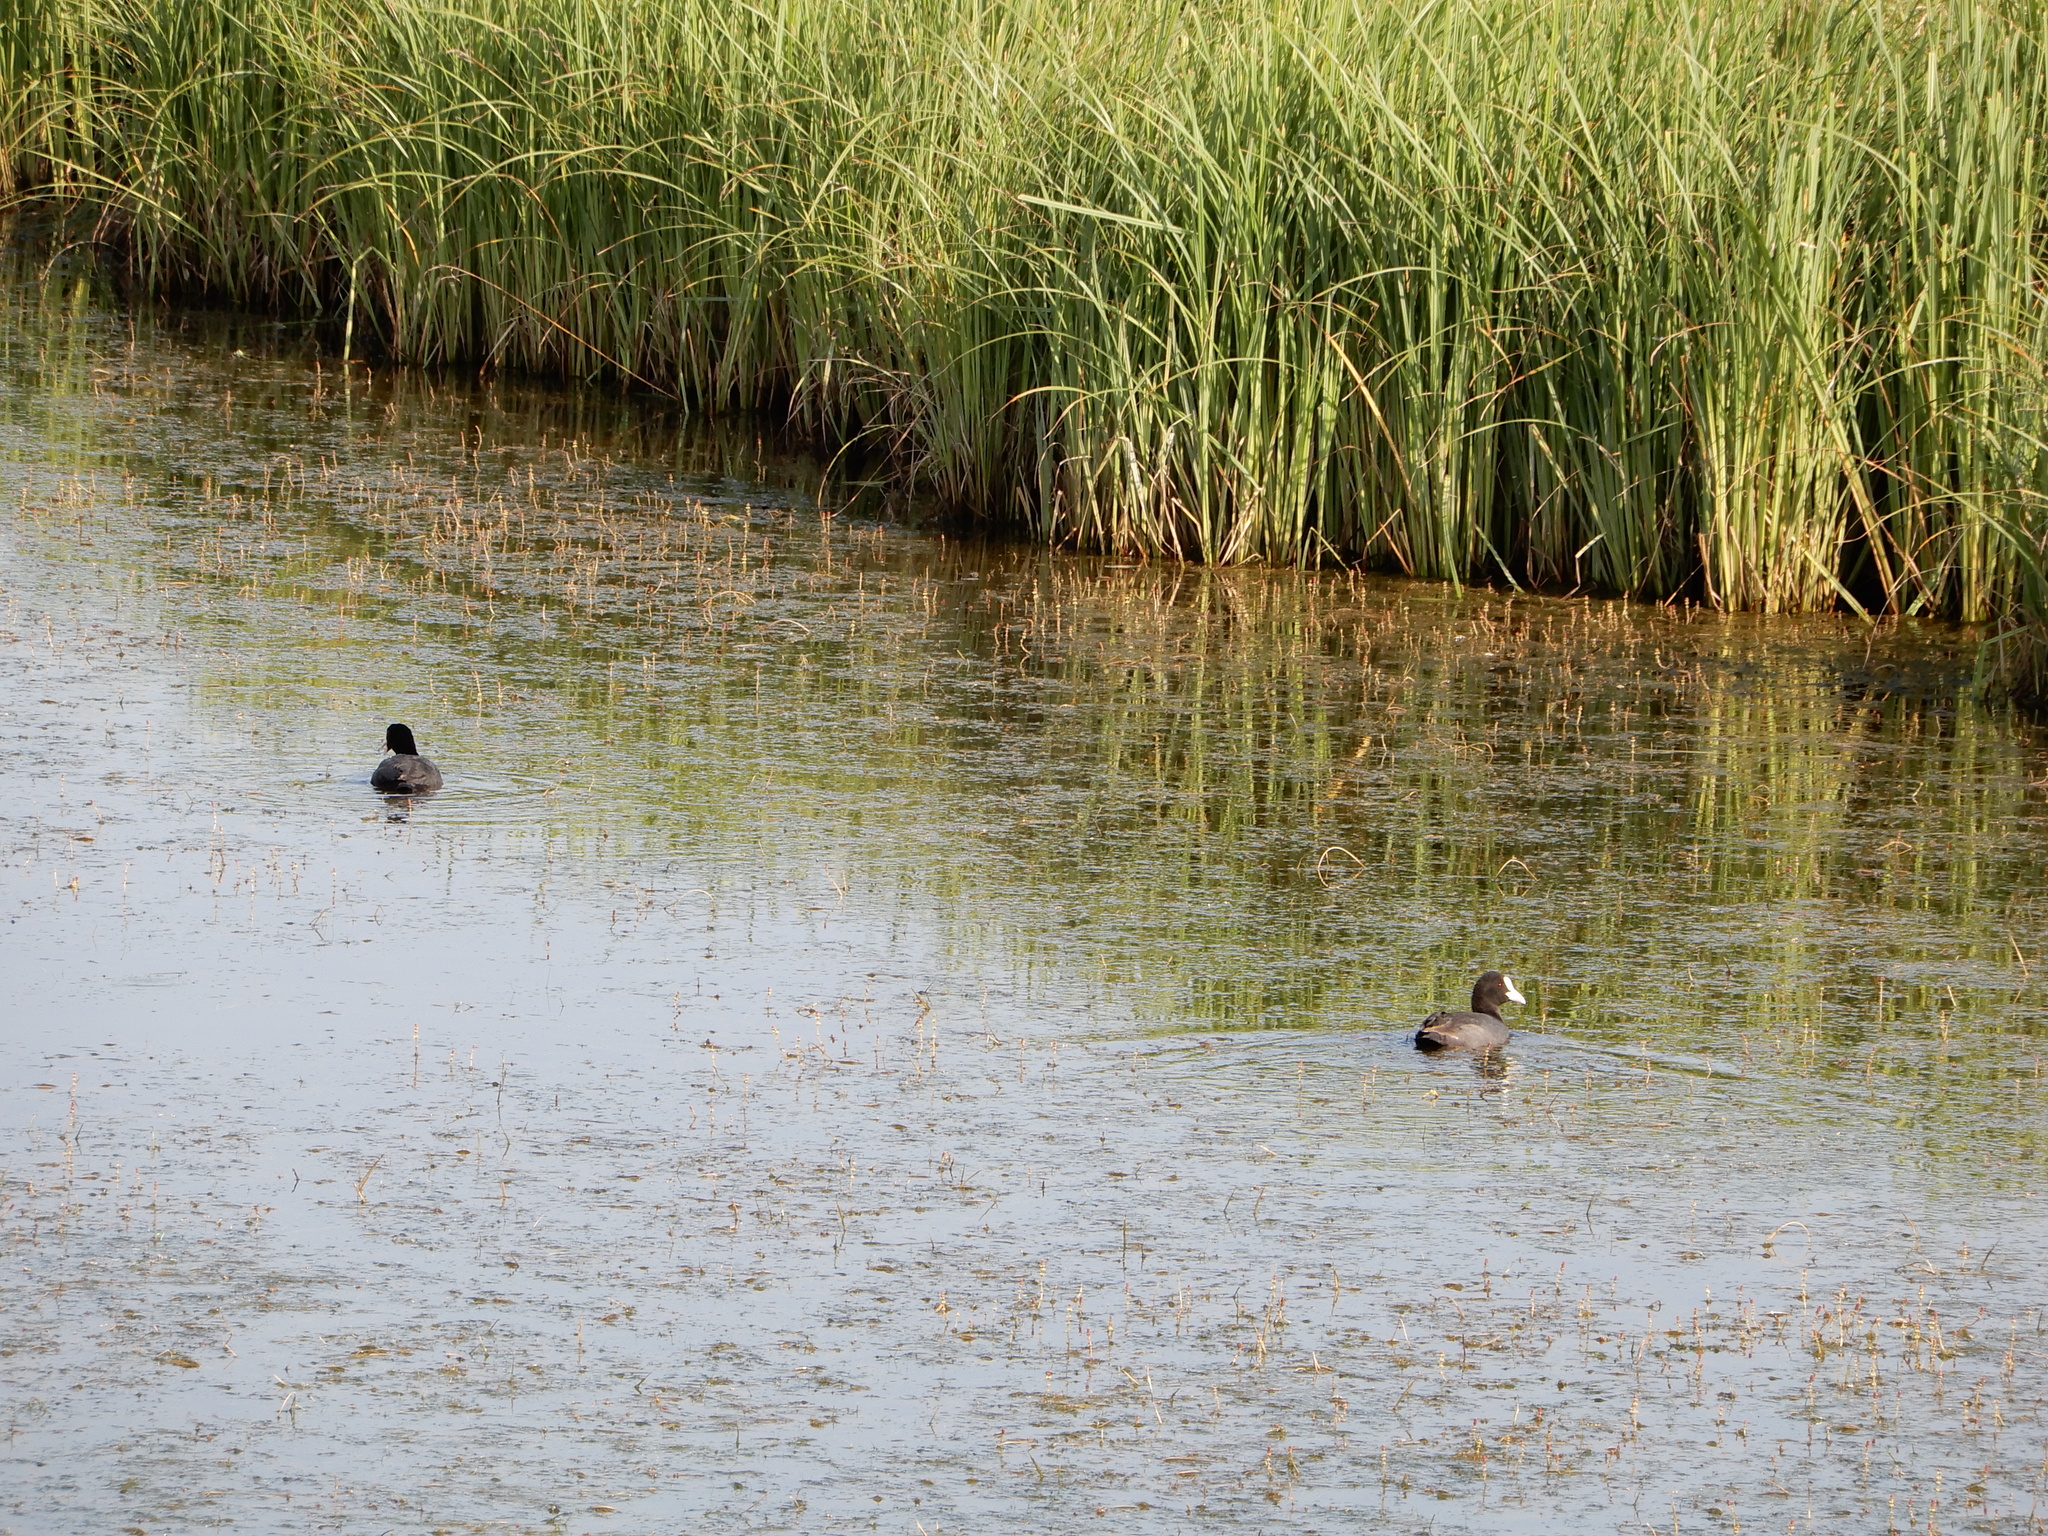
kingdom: Animalia
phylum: Chordata
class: Aves
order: Gruiformes
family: Rallidae
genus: Fulica
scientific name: Fulica atra
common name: Eurasian coot
